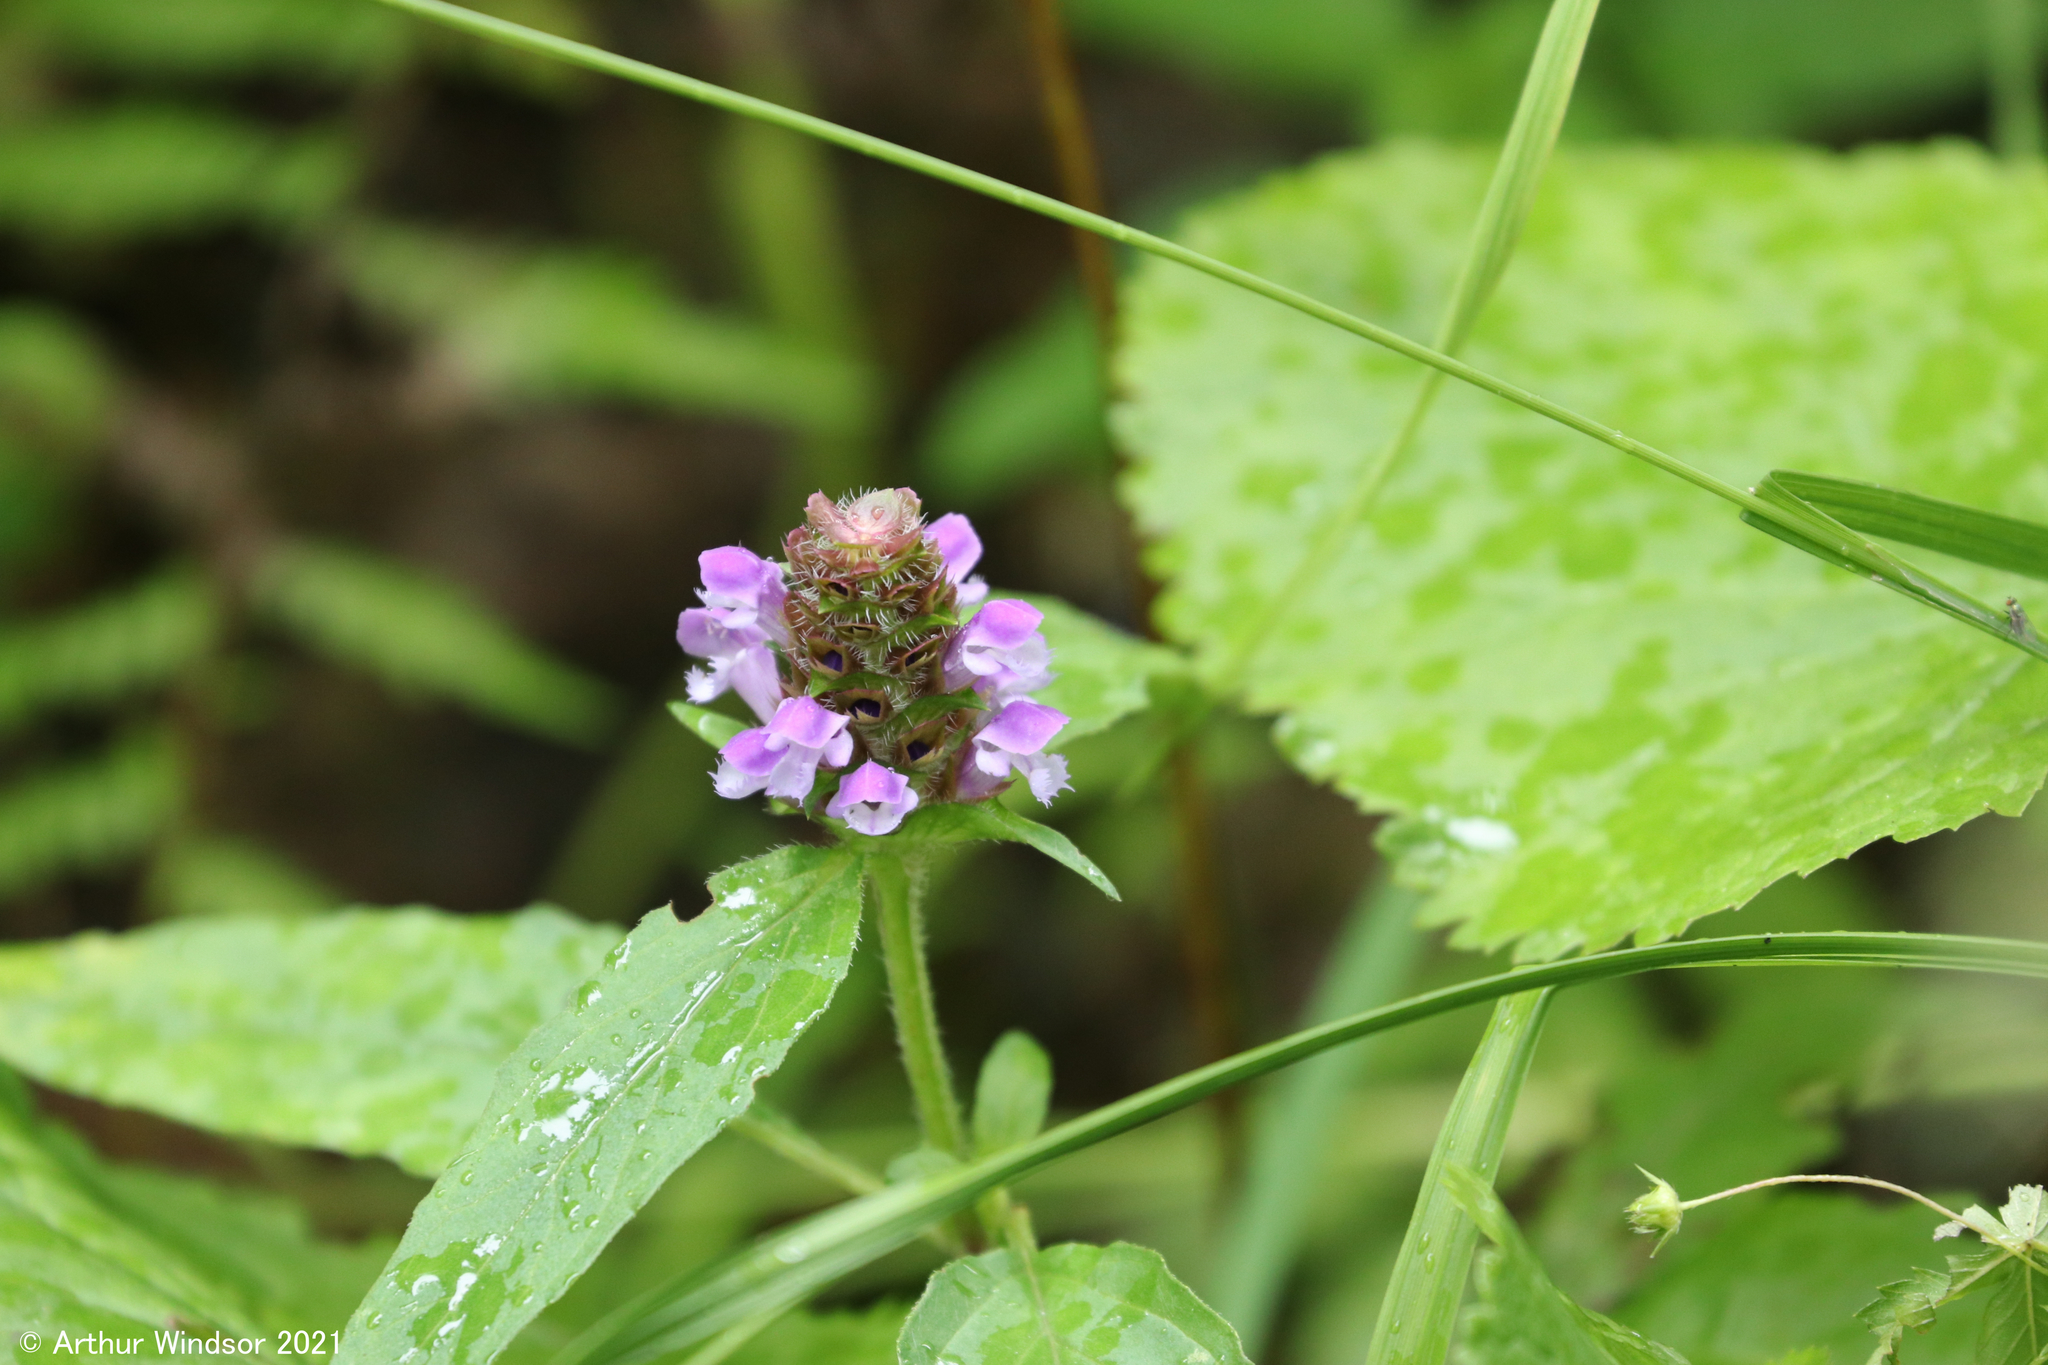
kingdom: Plantae
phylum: Tracheophyta
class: Magnoliopsida
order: Lamiales
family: Lamiaceae
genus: Prunella
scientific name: Prunella vulgaris
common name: Heal-all
